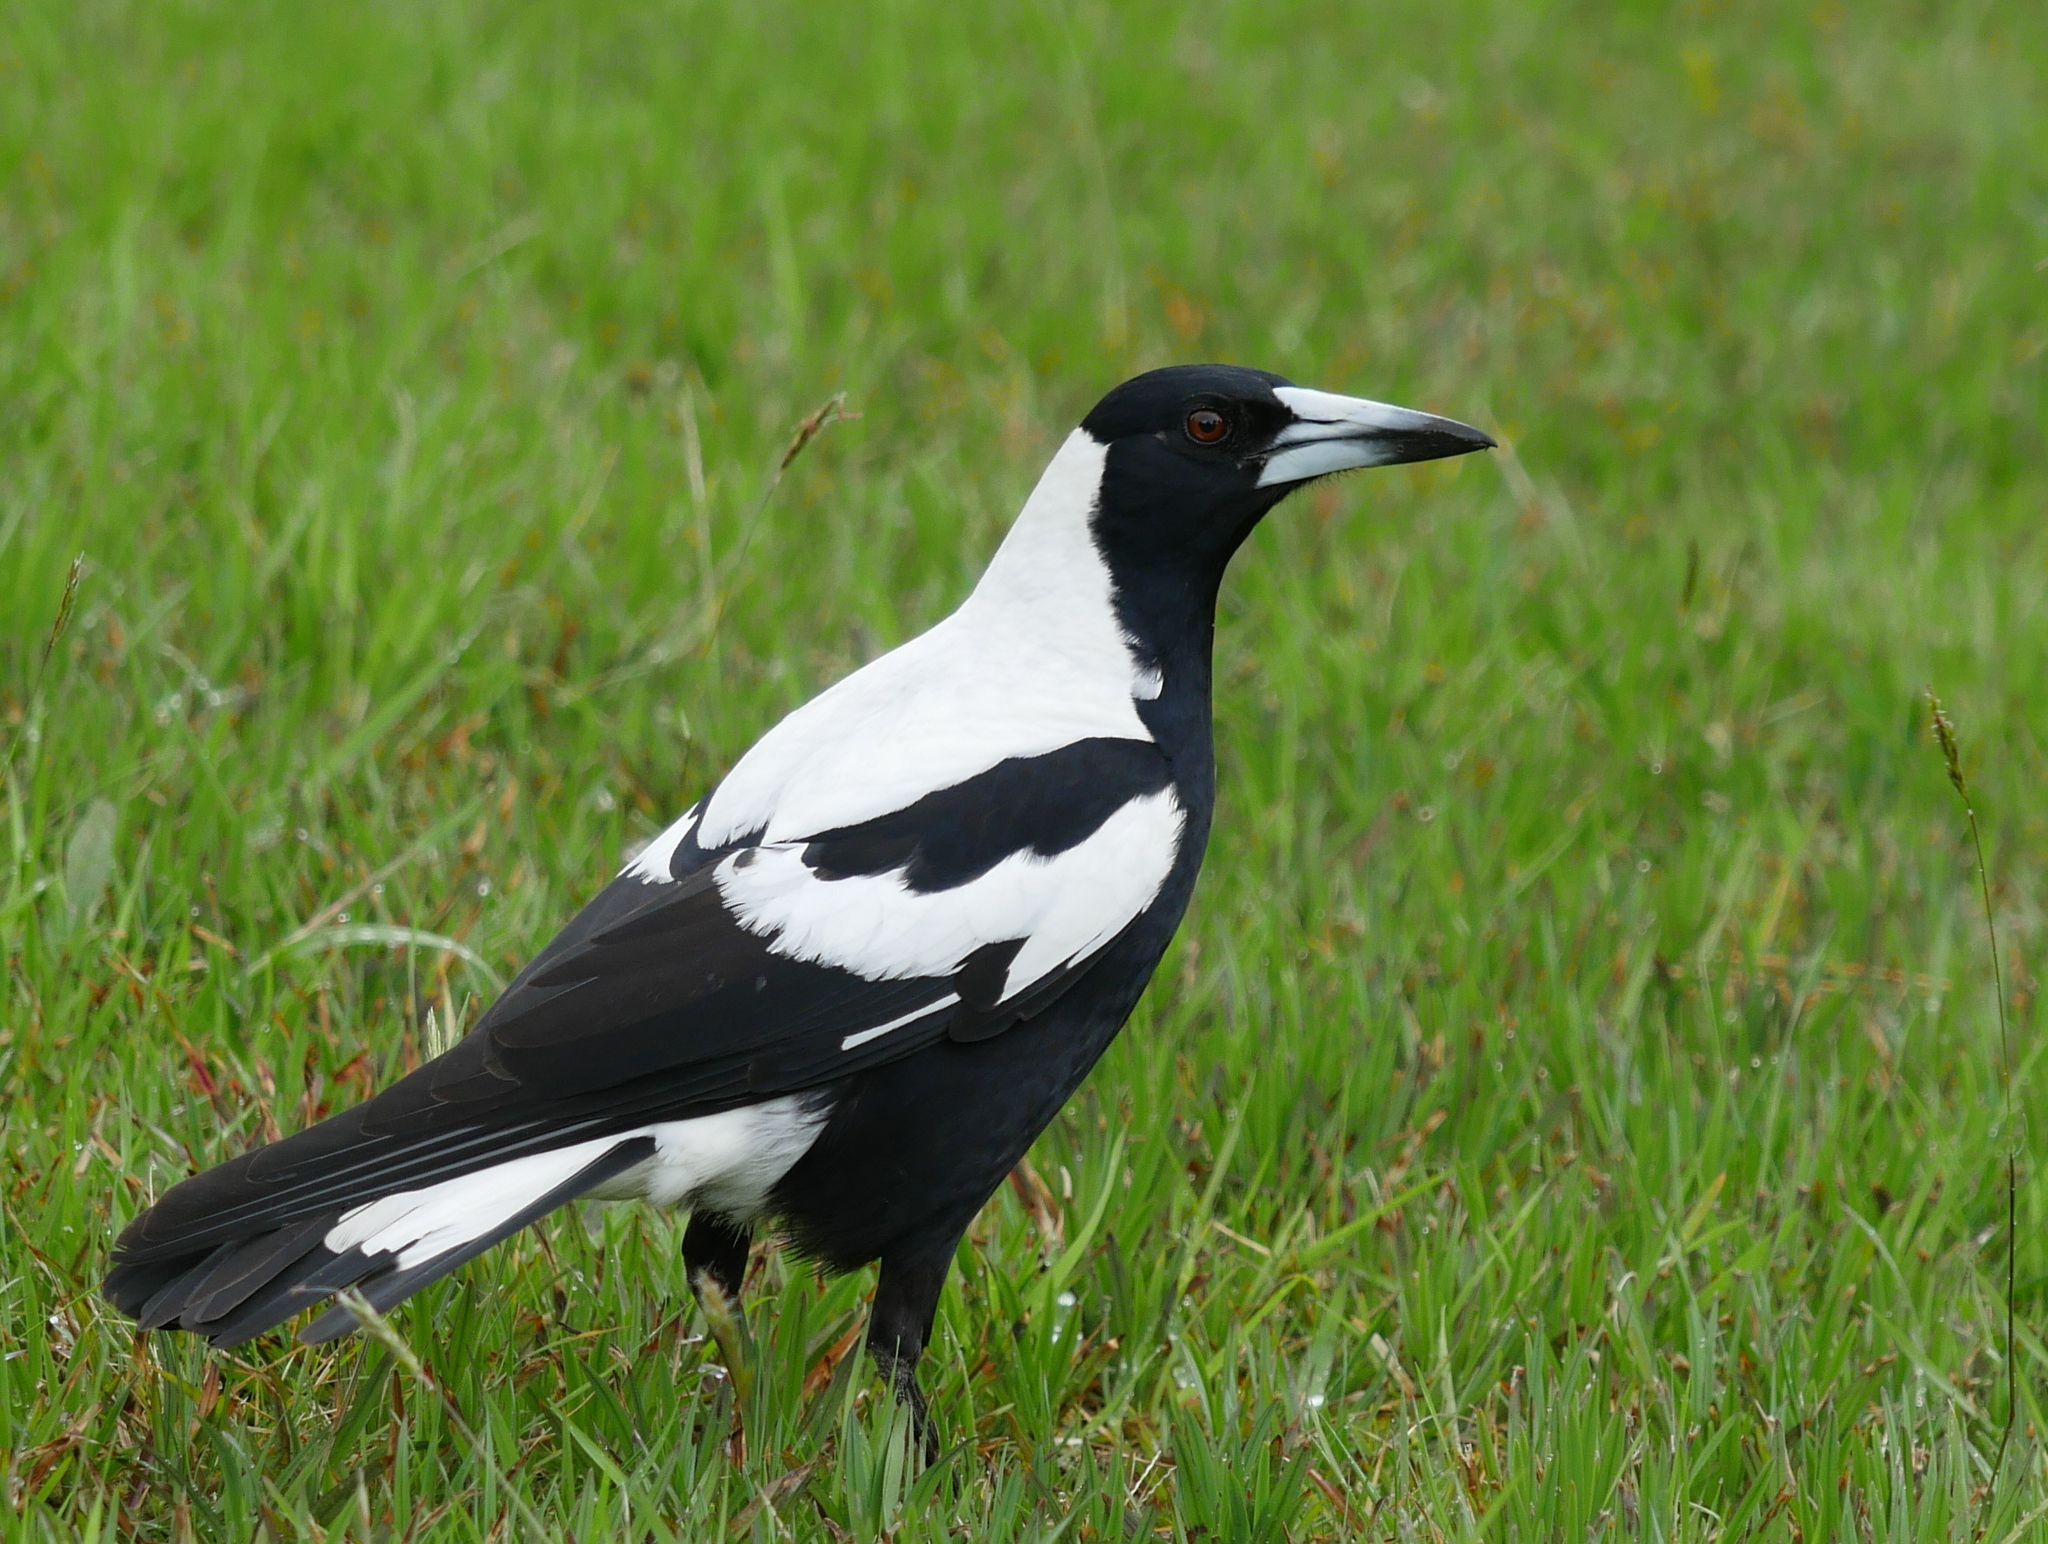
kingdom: Animalia
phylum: Chordata
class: Aves
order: Passeriformes
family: Cracticidae
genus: Gymnorhina
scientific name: Gymnorhina tibicen
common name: Australian magpie
